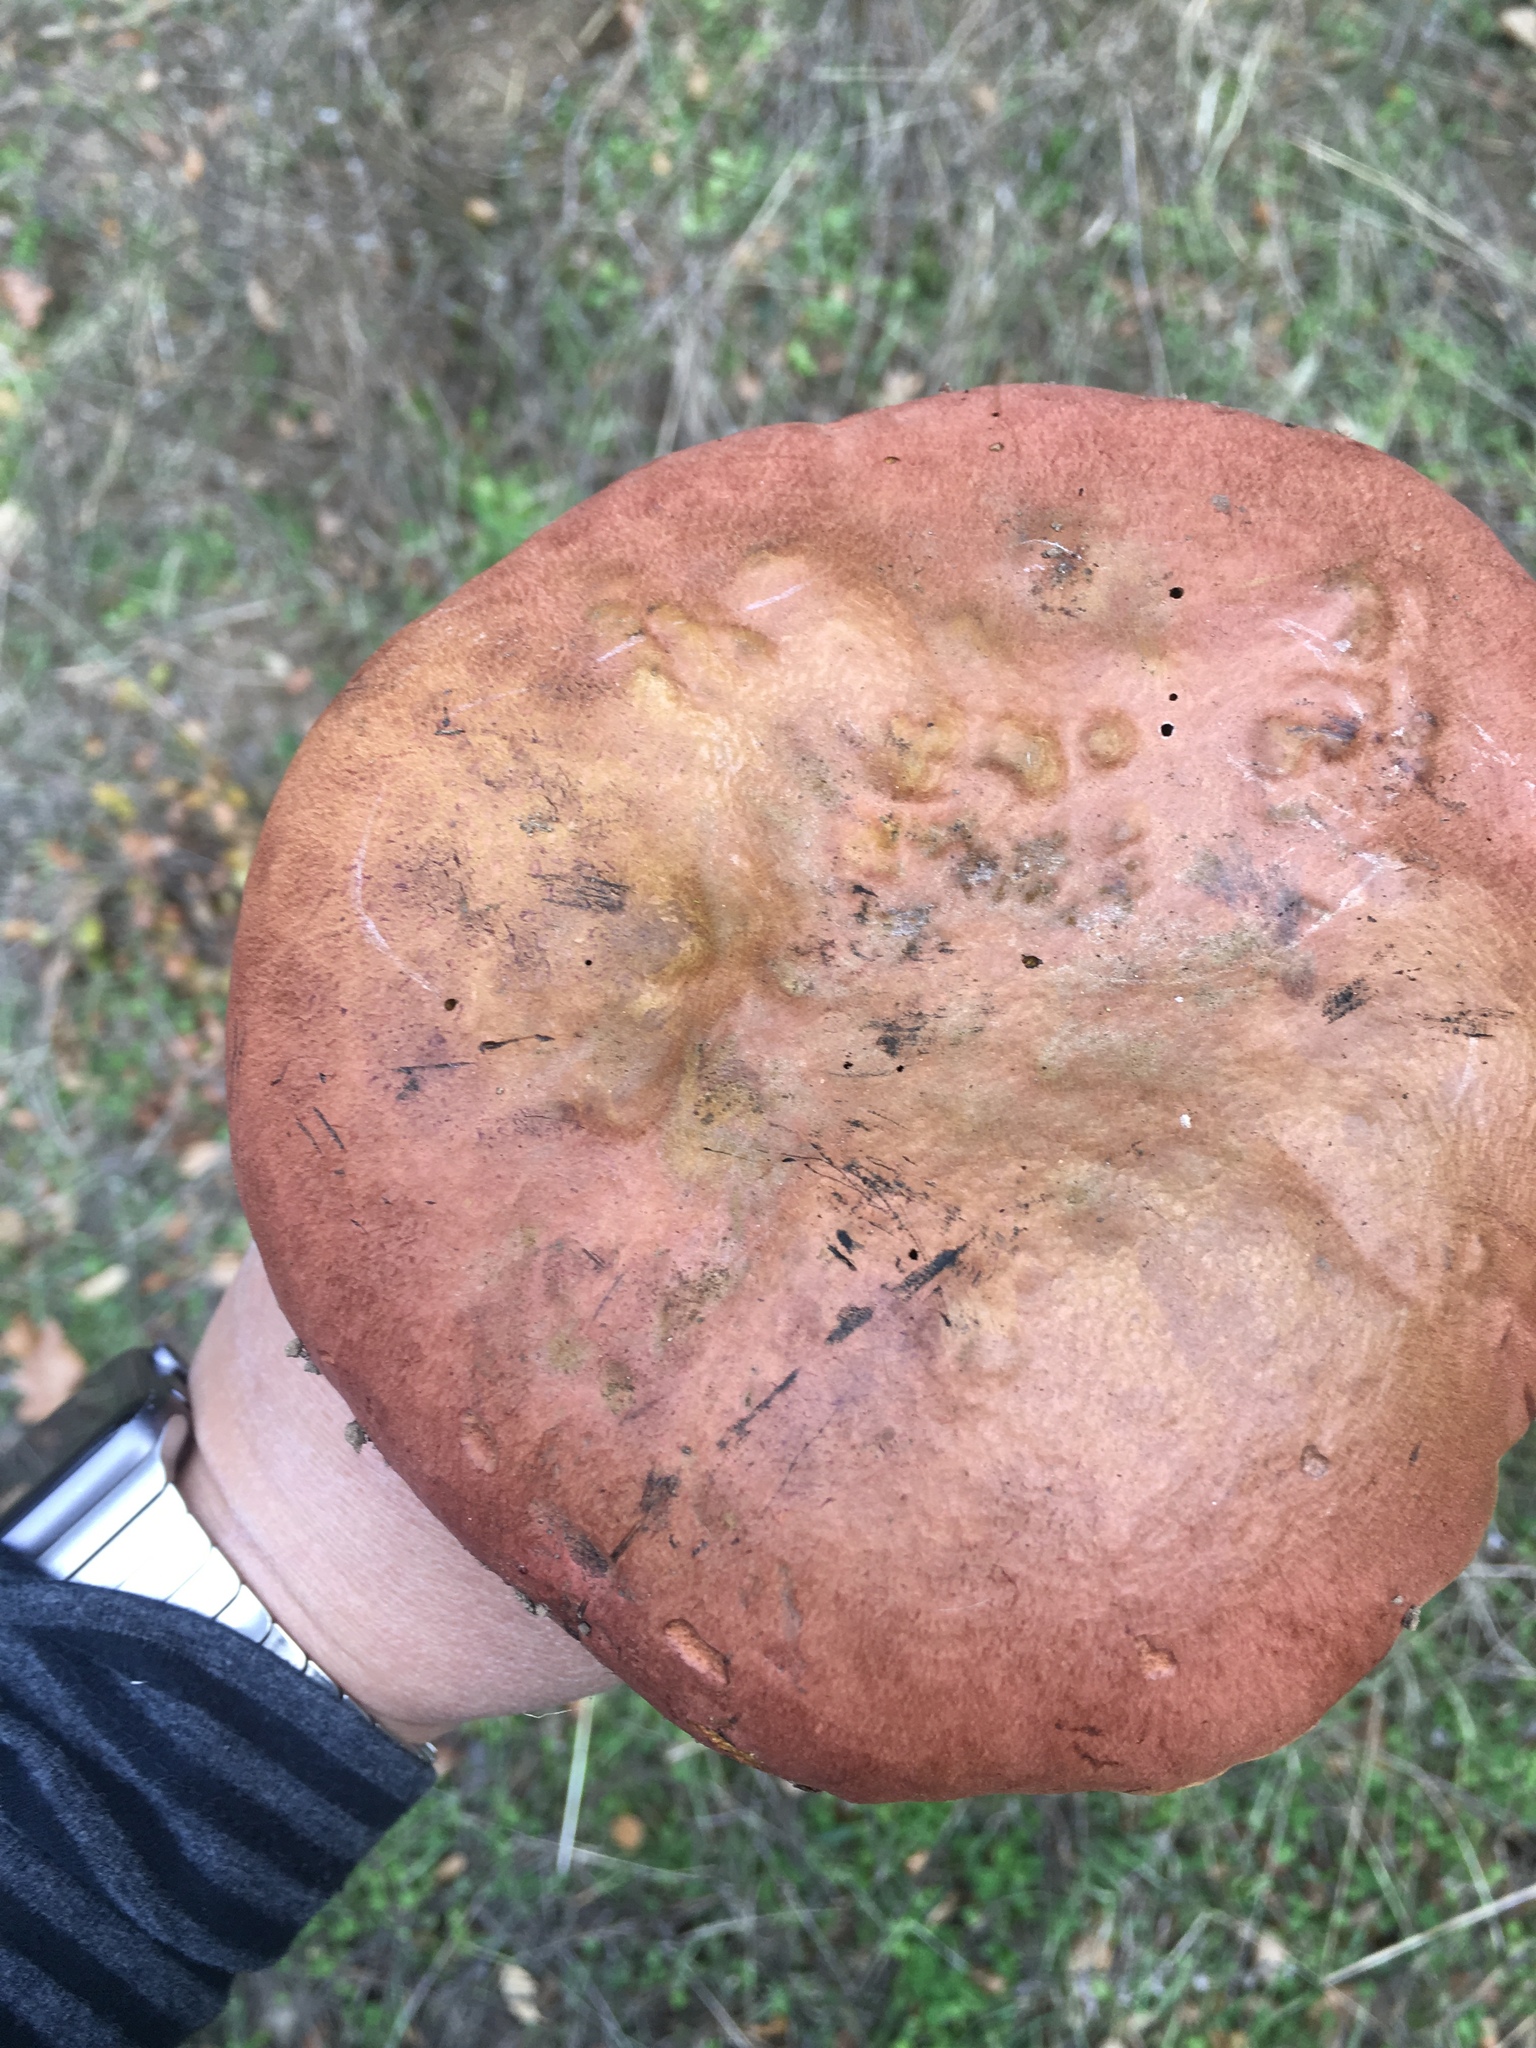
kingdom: Fungi
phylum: Basidiomycota
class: Agaricomycetes
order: Boletales
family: Boletaceae
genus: Suillellus
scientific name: Suillellus amygdalinus
